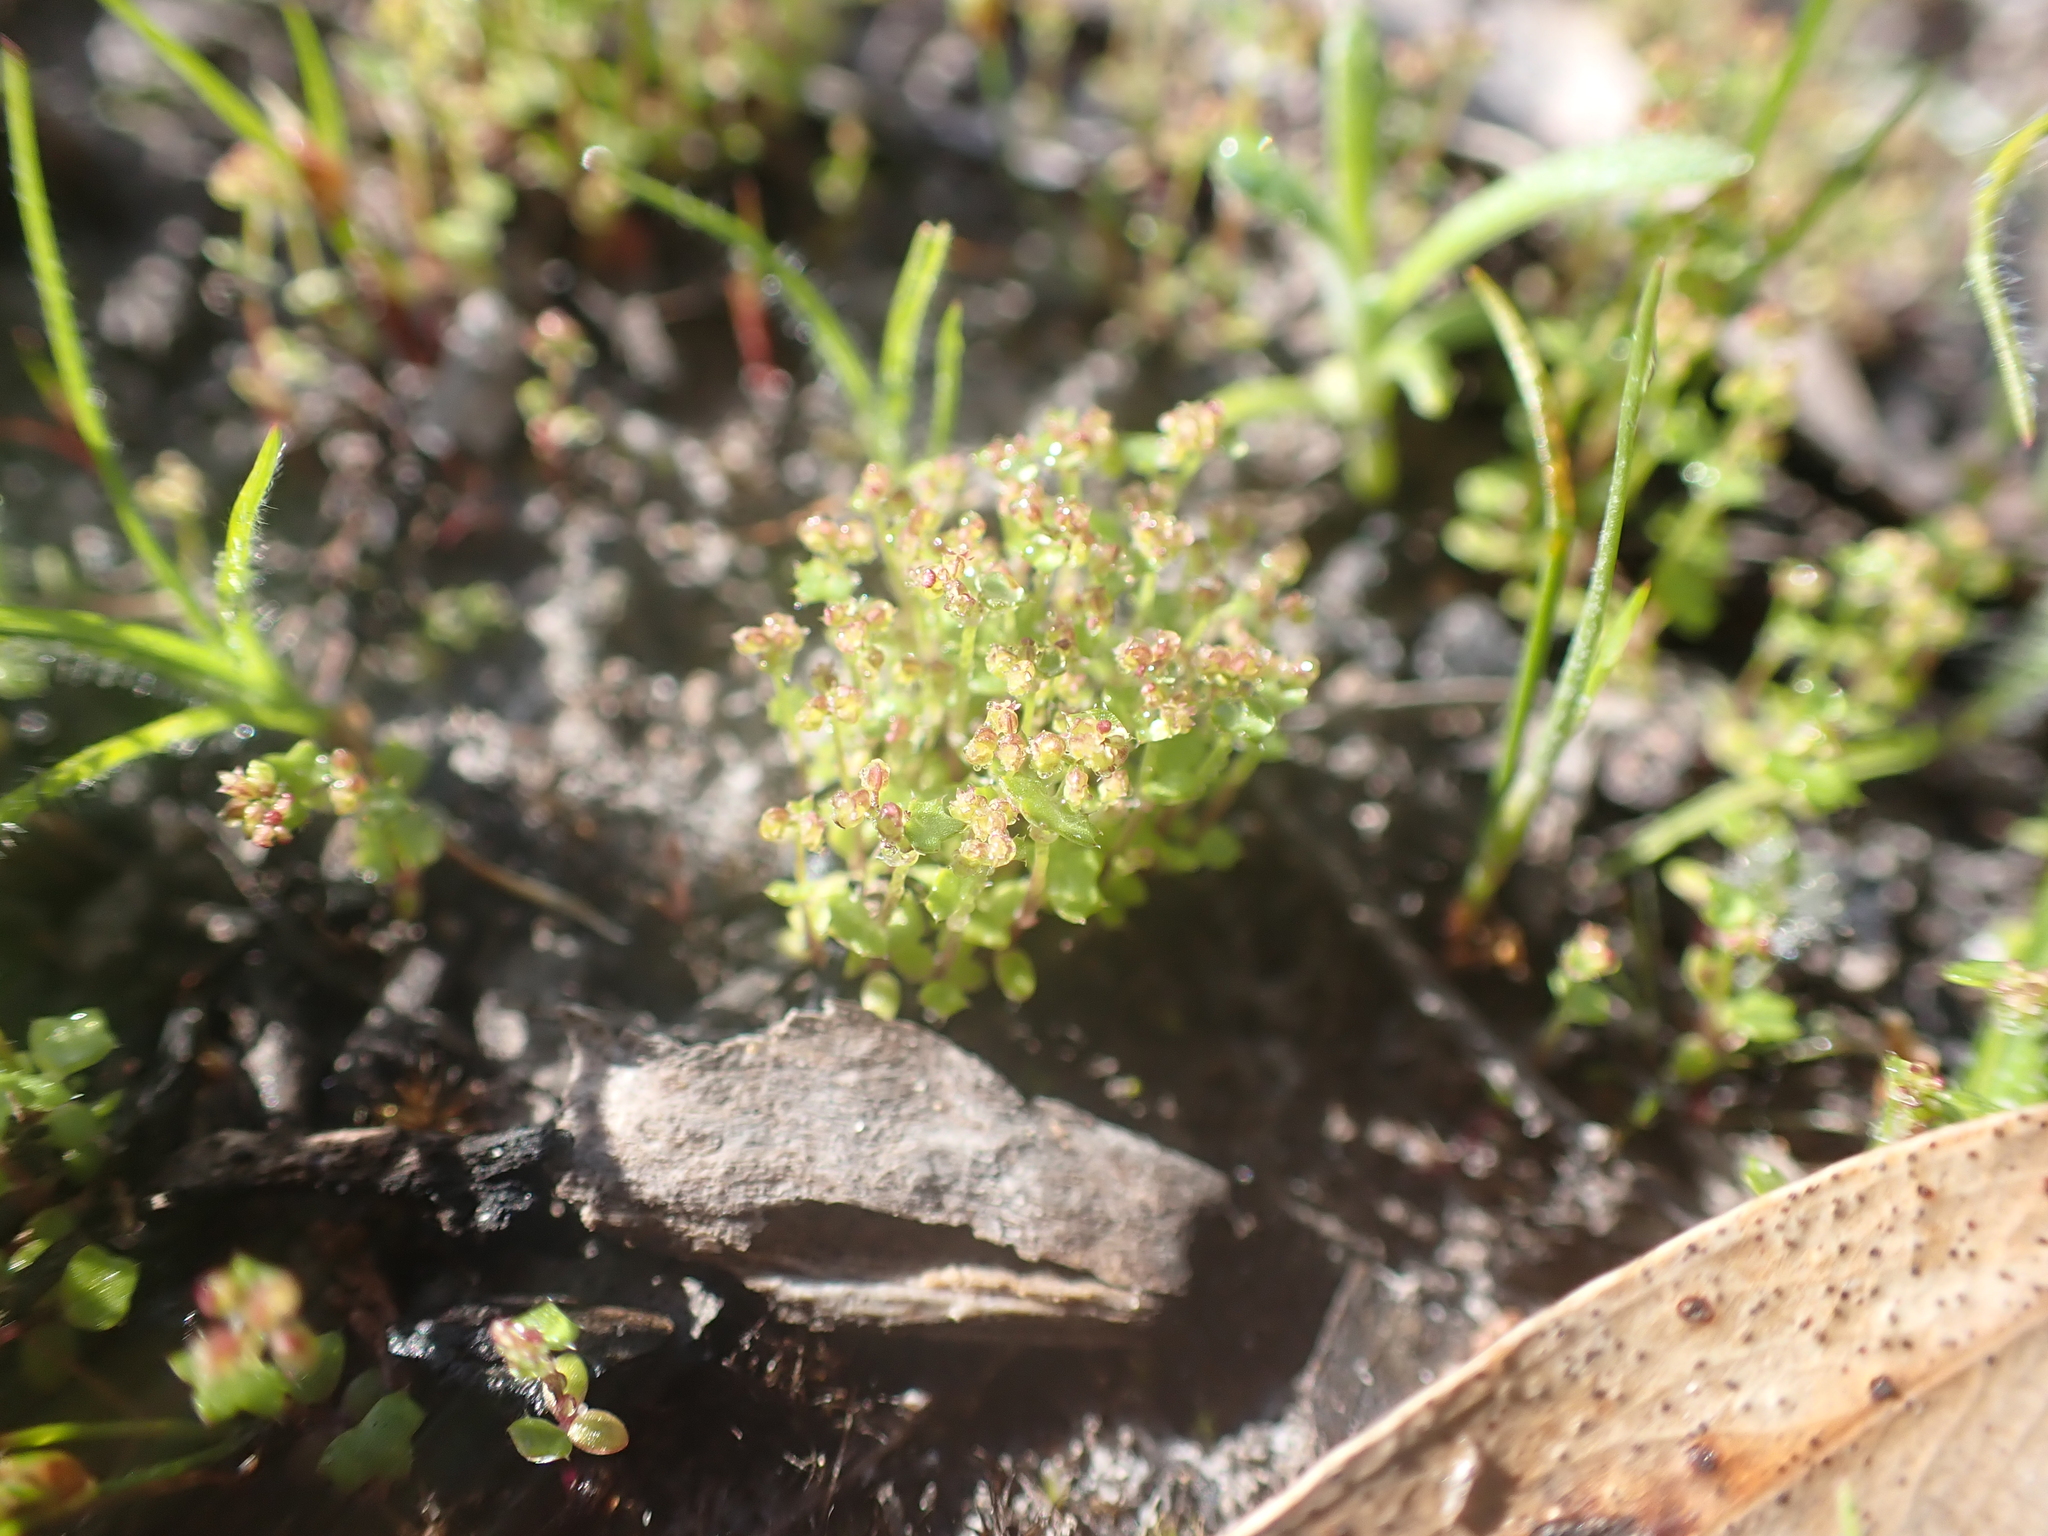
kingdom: Plantae
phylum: Tracheophyta
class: Magnoliopsida
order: Apiales
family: Araliaceae
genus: Hydrocotyle
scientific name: Hydrocotyle callicarpa
